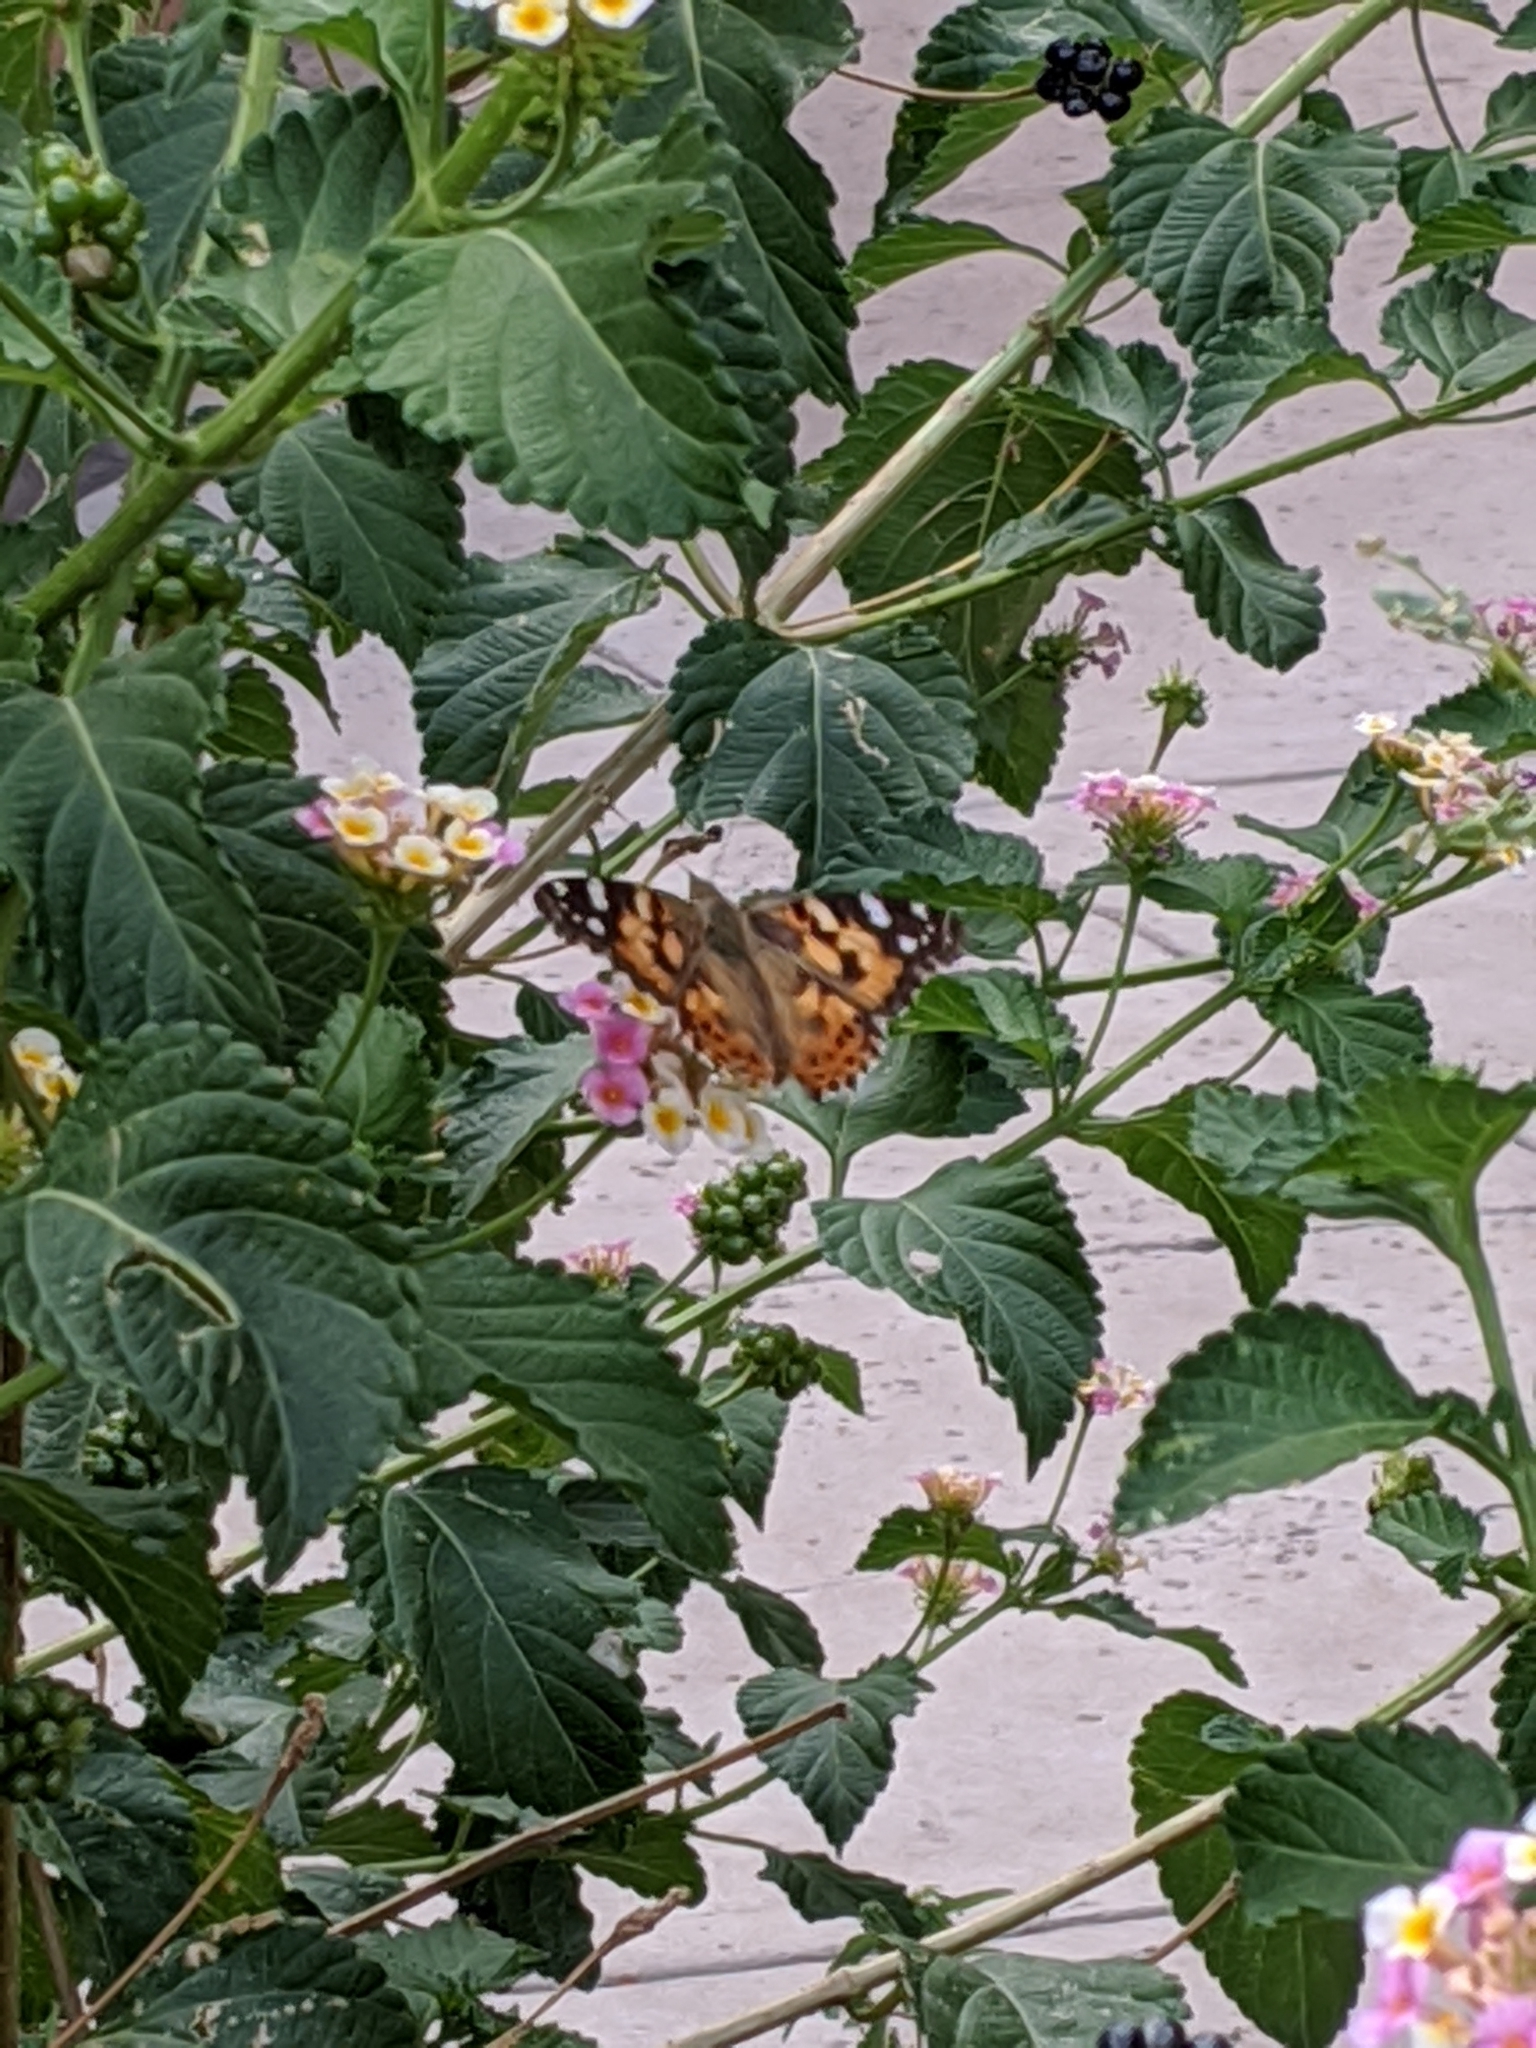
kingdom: Animalia
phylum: Arthropoda
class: Insecta
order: Lepidoptera
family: Nymphalidae
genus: Vanessa
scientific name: Vanessa cardui
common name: Painted lady
